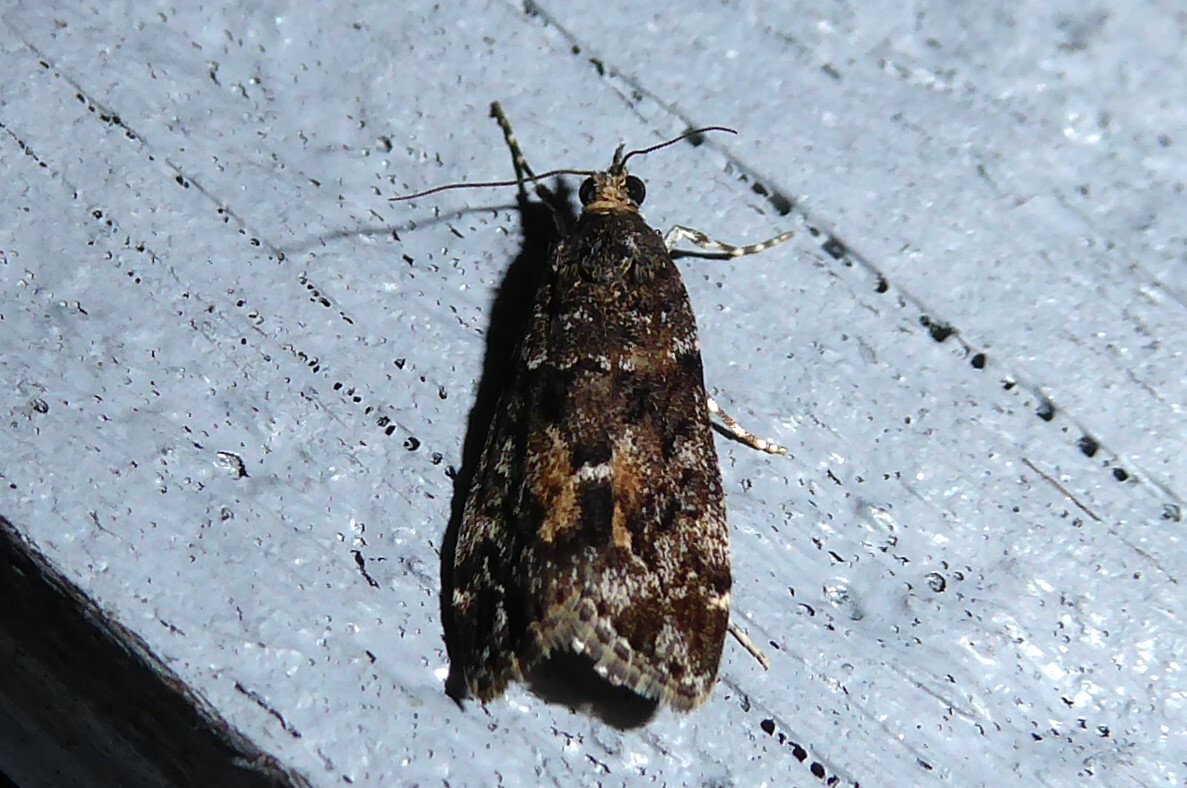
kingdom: Animalia
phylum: Arthropoda
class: Insecta
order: Lepidoptera
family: Crambidae
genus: Eudonia
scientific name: Eudonia submarginalis
